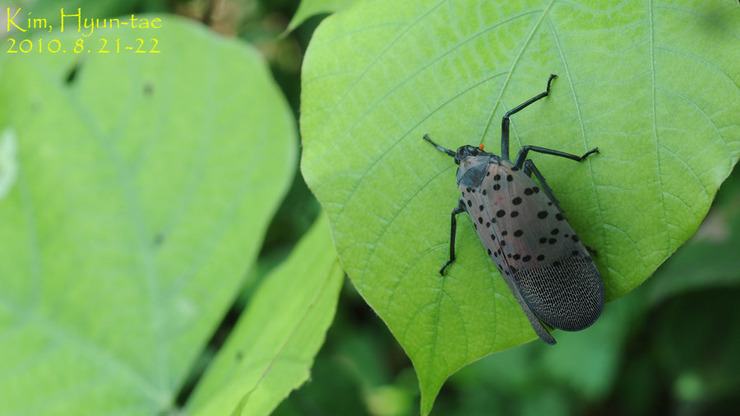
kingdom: Animalia
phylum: Arthropoda
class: Insecta
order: Hemiptera
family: Fulgoridae
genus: Lycorma
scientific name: Lycorma delicatula
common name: Spotted lanternfly
